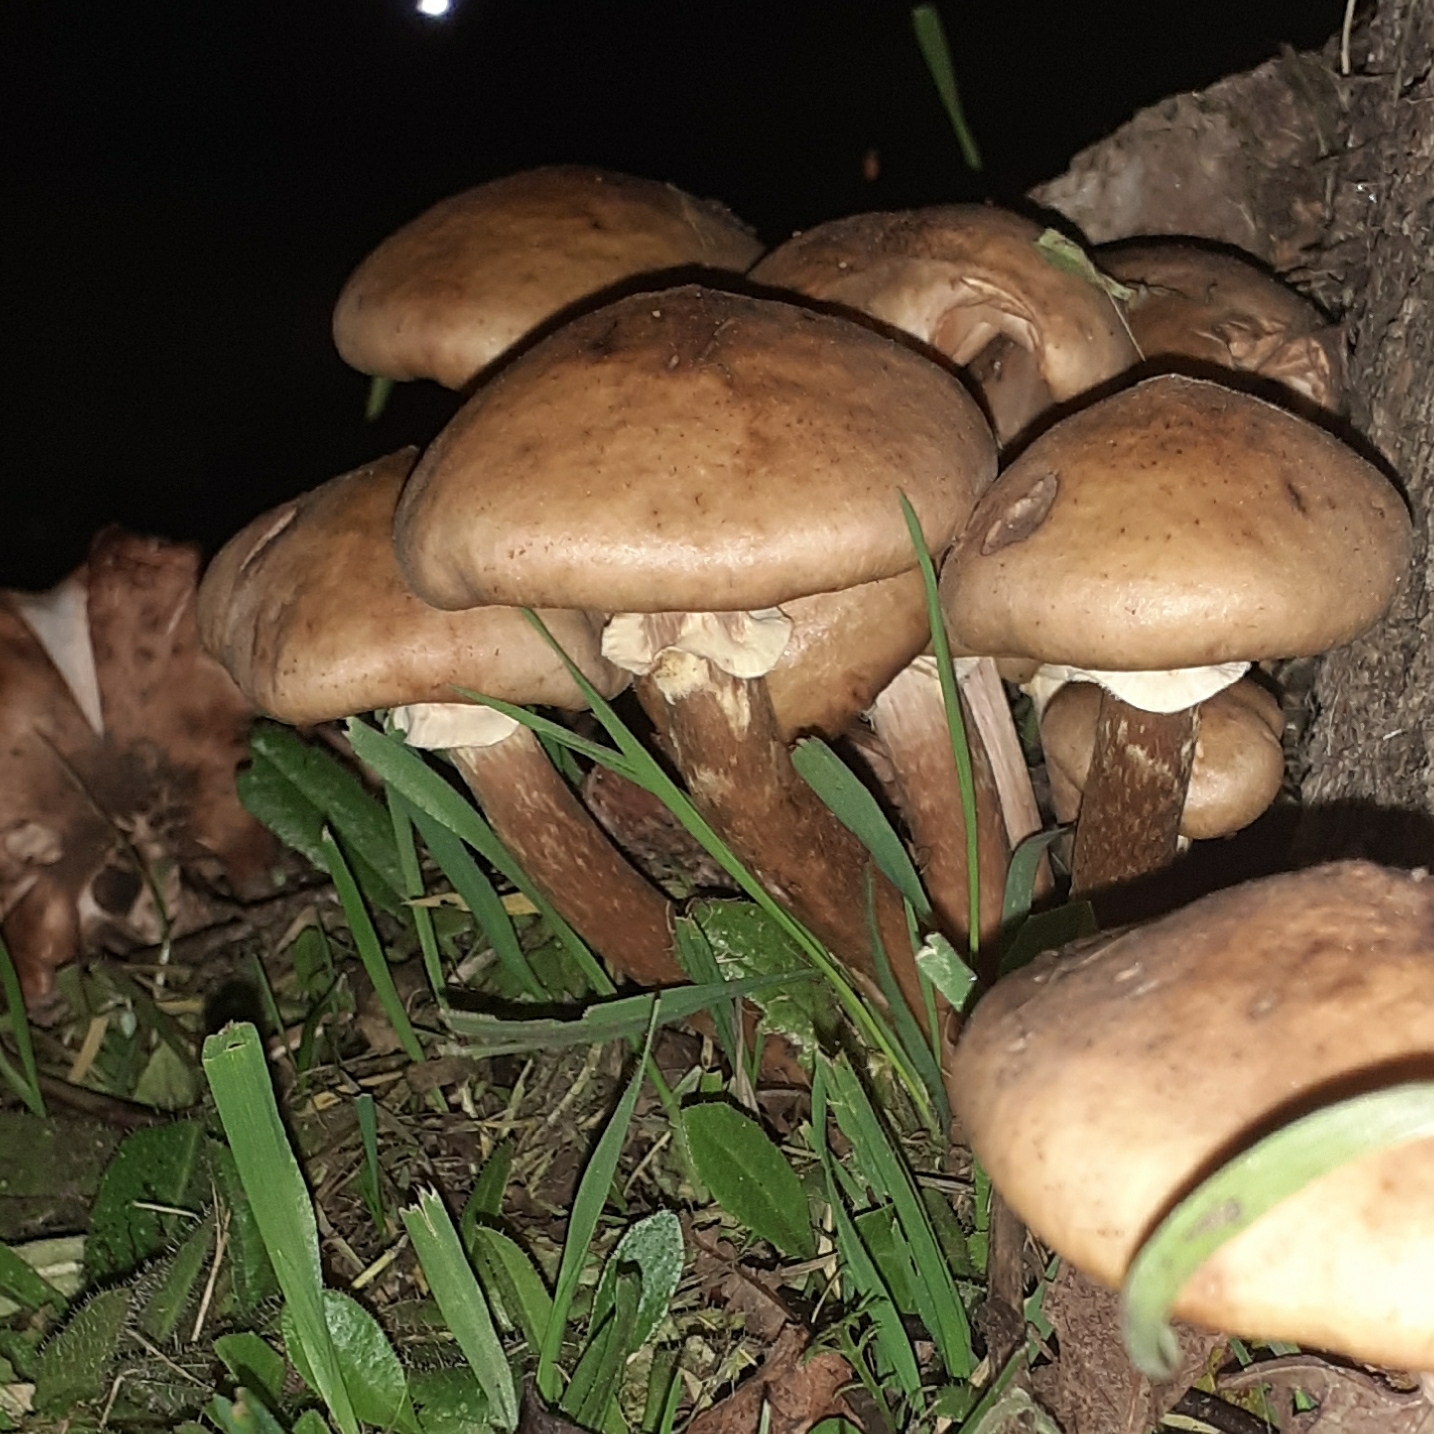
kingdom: Fungi
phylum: Basidiomycota
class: Agaricomycetes
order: Agaricales
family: Physalacriaceae
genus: Armillaria
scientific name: Armillaria mellea
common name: Honey fungus
